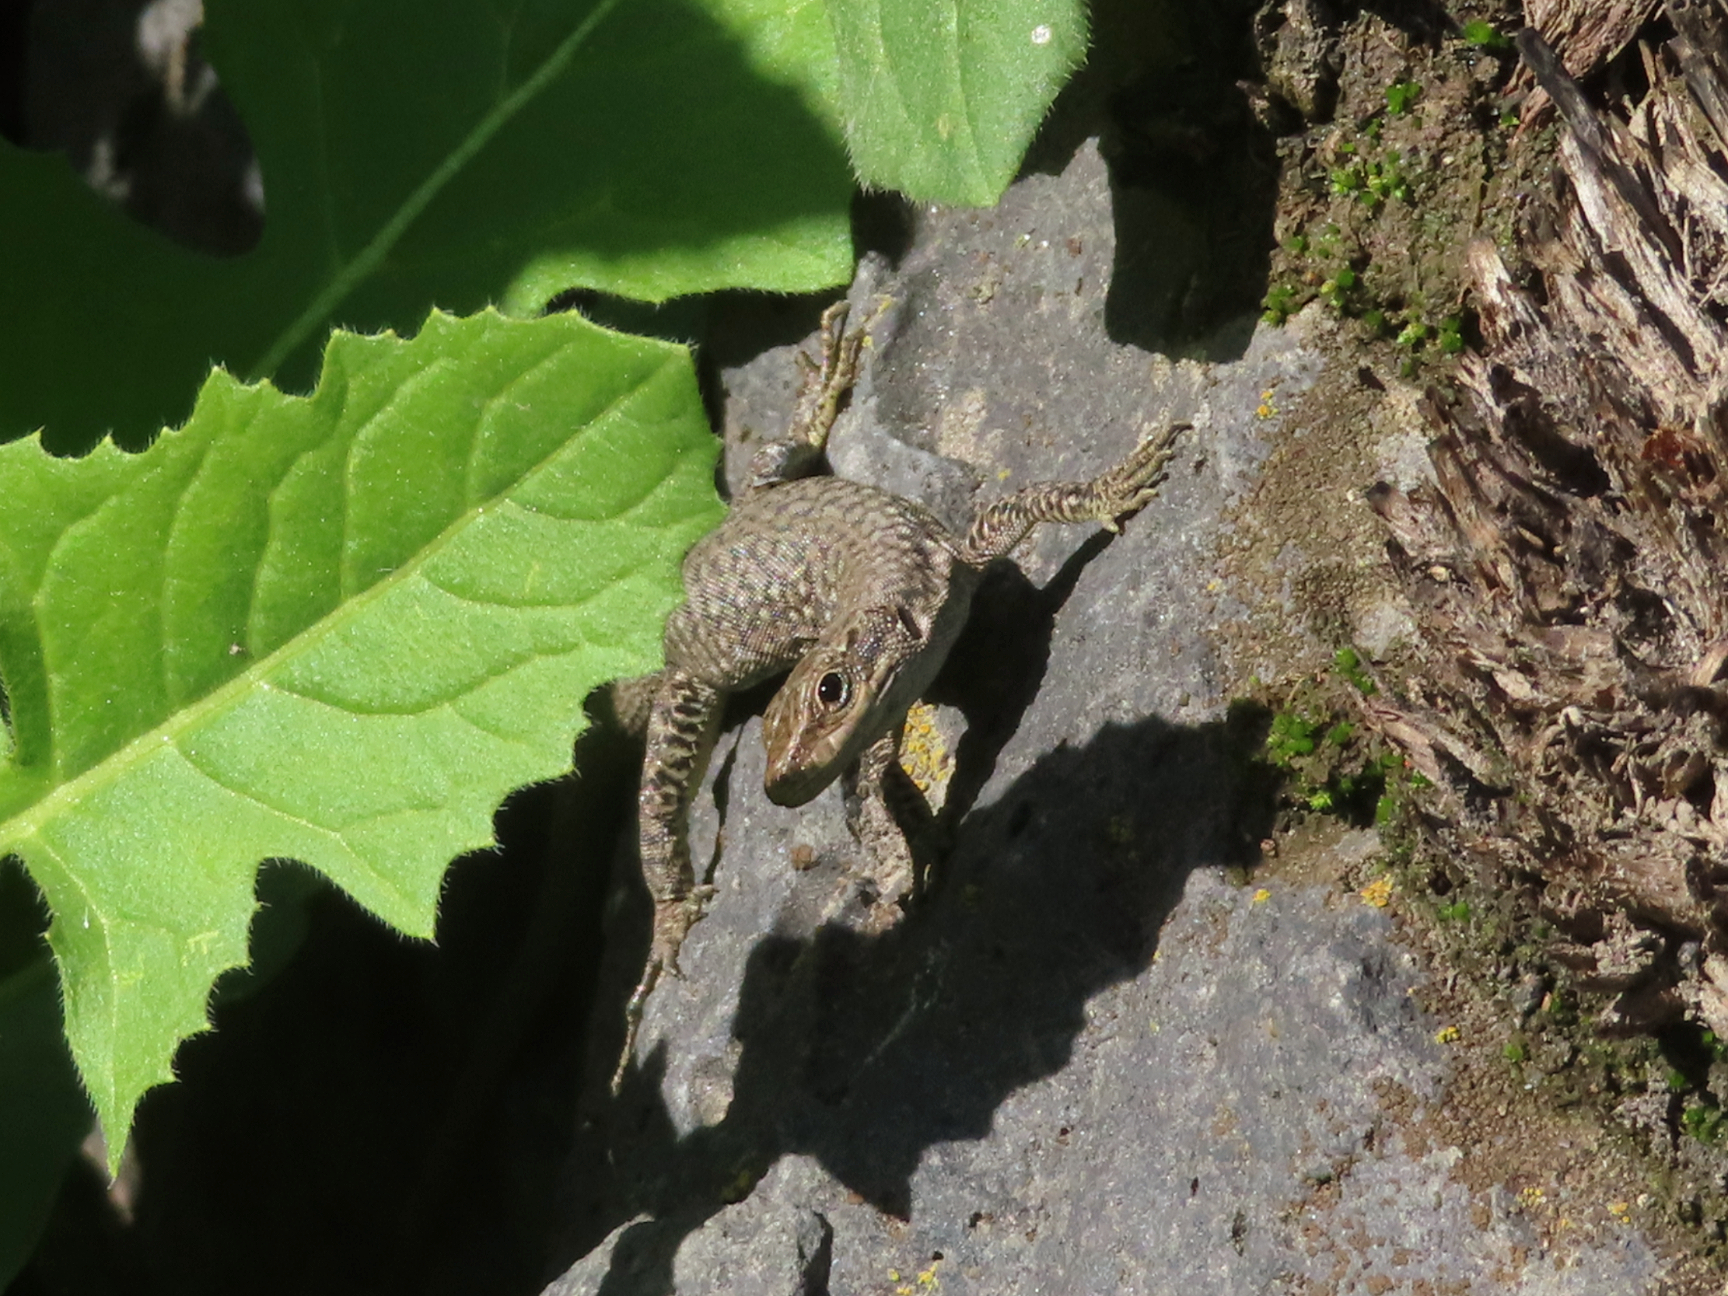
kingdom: Animalia
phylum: Chordata
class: Squamata
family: Lacertidae
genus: Darevskia
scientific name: Darevskia
